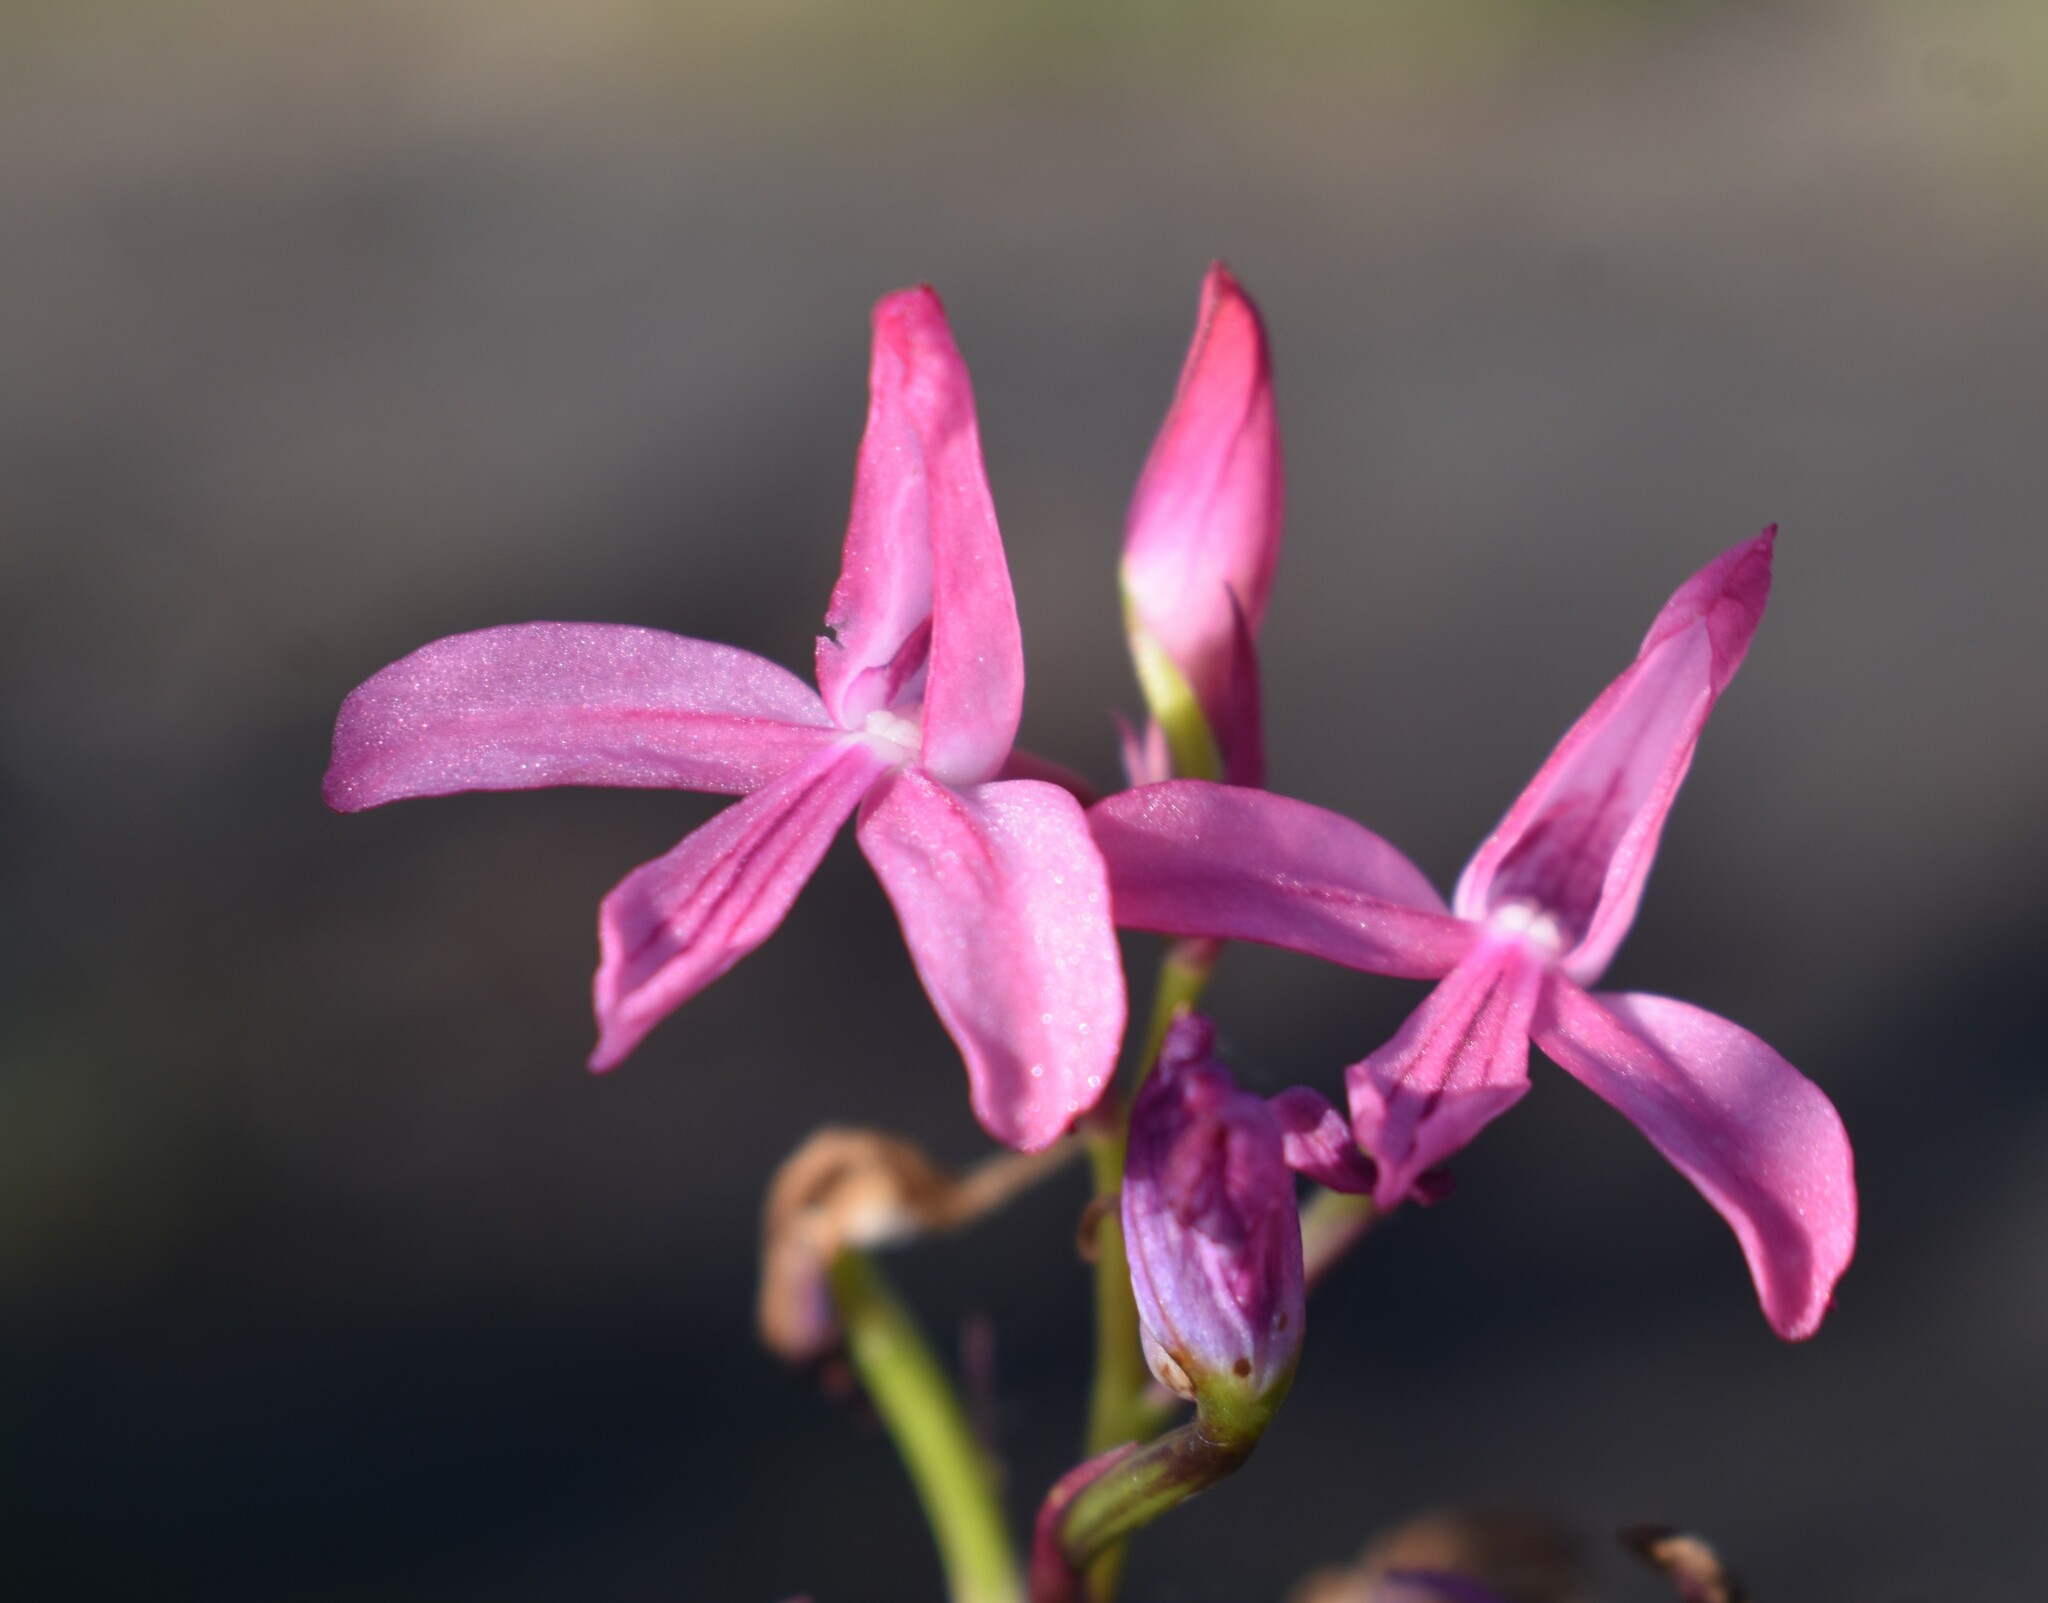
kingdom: Plantae
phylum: Tracheophyta
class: Liliopsida
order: Asparagales
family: Orchidaceae
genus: Disa
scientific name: Disa gladioliflora
